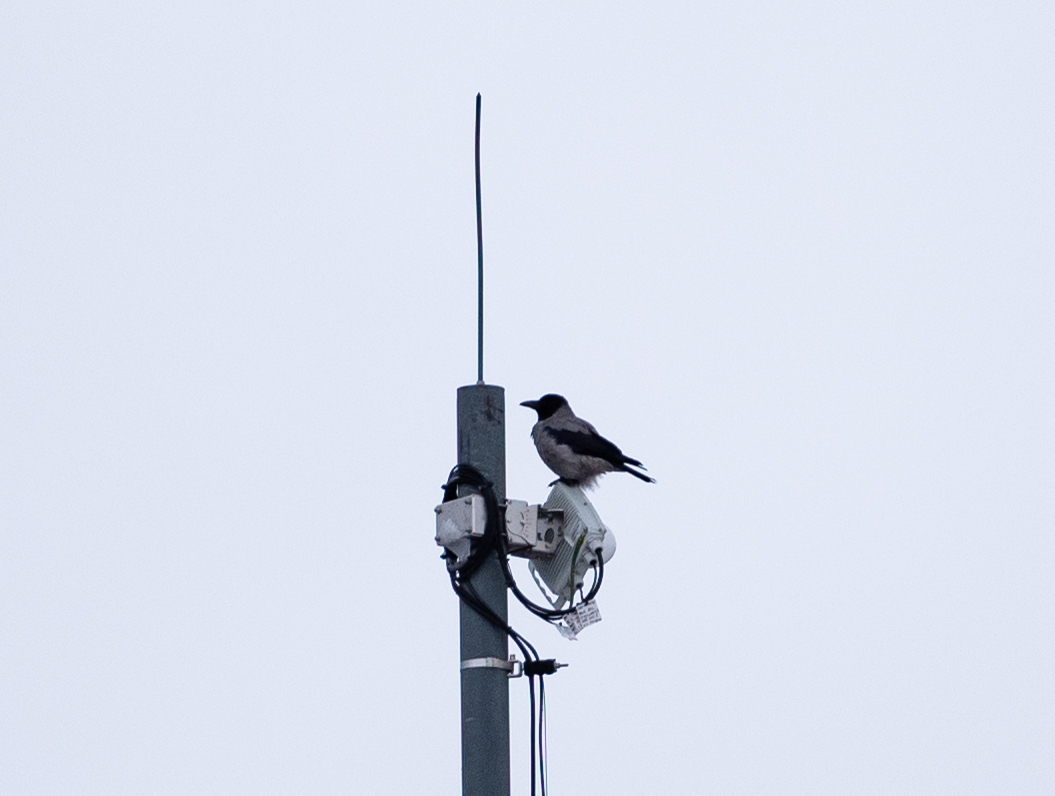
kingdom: Animalia
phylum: Chordata
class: Aves
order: Passeriformes
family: Corvidae
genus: Corvus
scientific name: Corvus cornix
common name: Hooded crow
